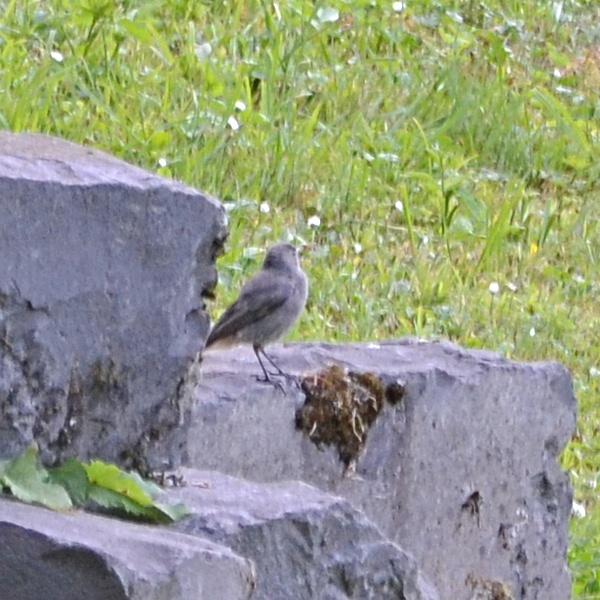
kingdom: Animalia
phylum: Chordata
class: Aves
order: Passeriformes
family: Muscicapidae
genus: Phoenicurus
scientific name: Phoenicurus ochruros
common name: Black redstart
